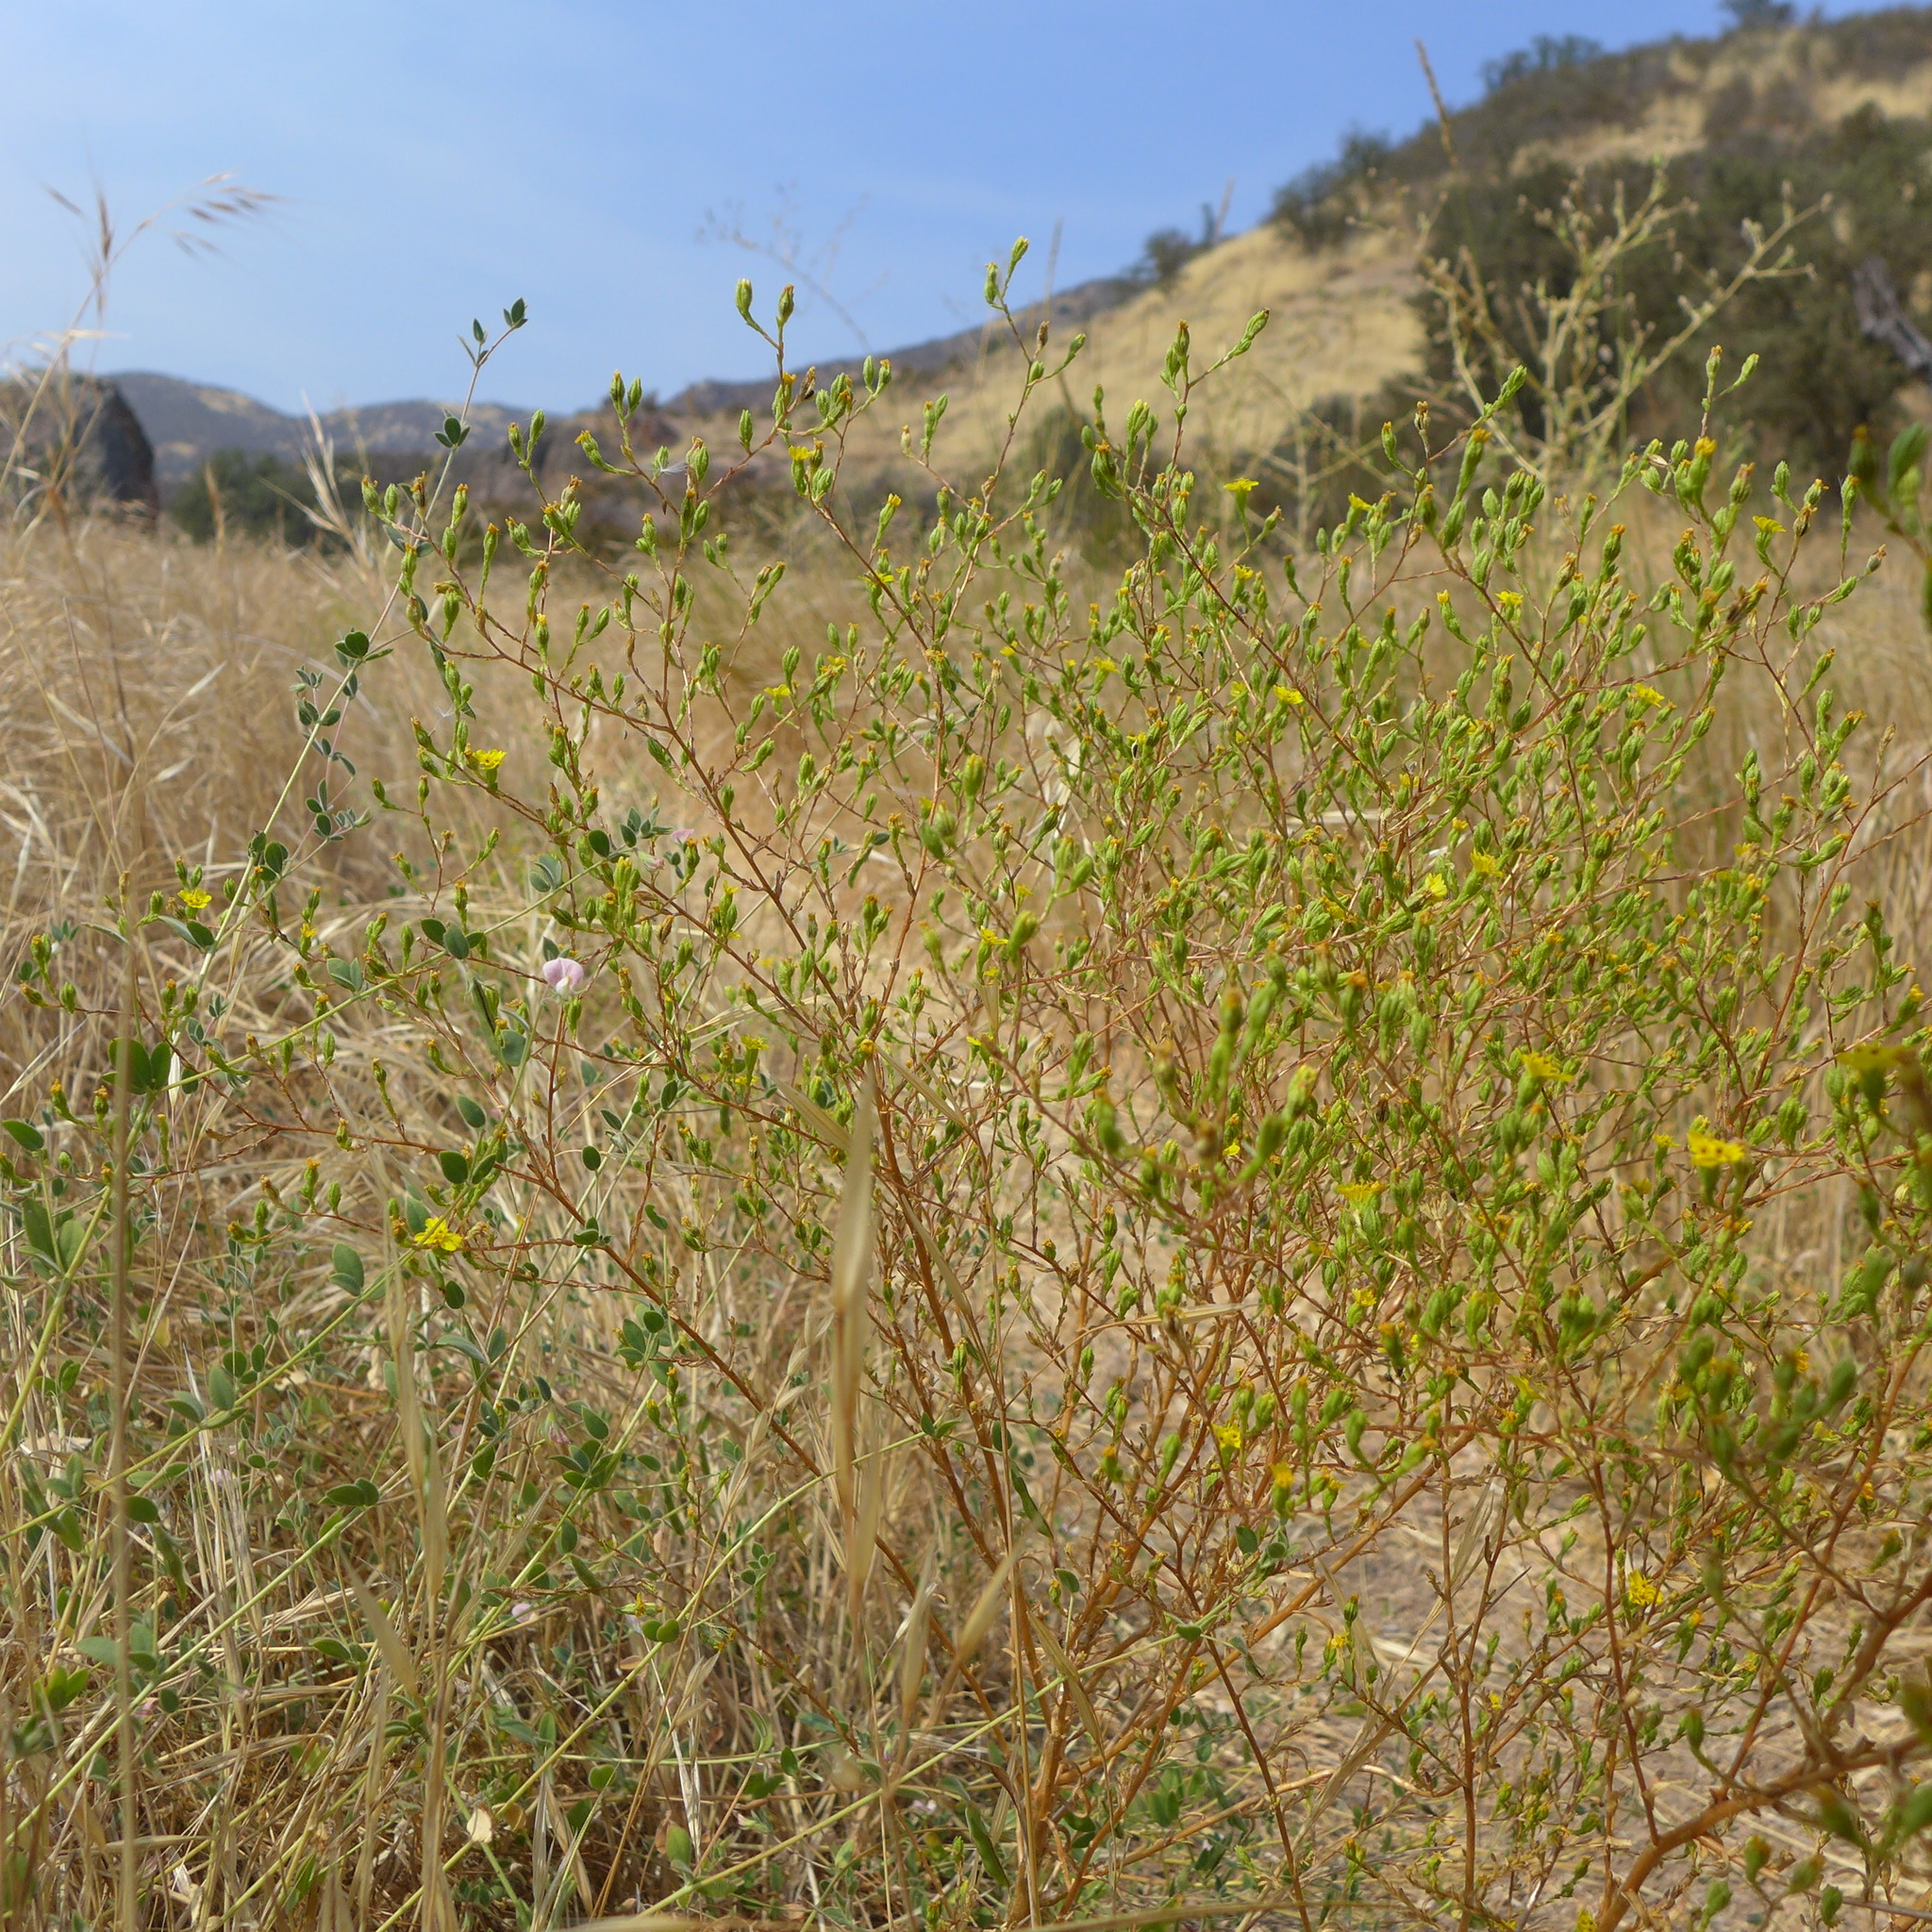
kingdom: Plantae
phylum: Tracheophyta
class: Magnoliopsida
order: Asterales
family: Asteraceae
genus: Deinandra
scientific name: Deinandra lobbii
